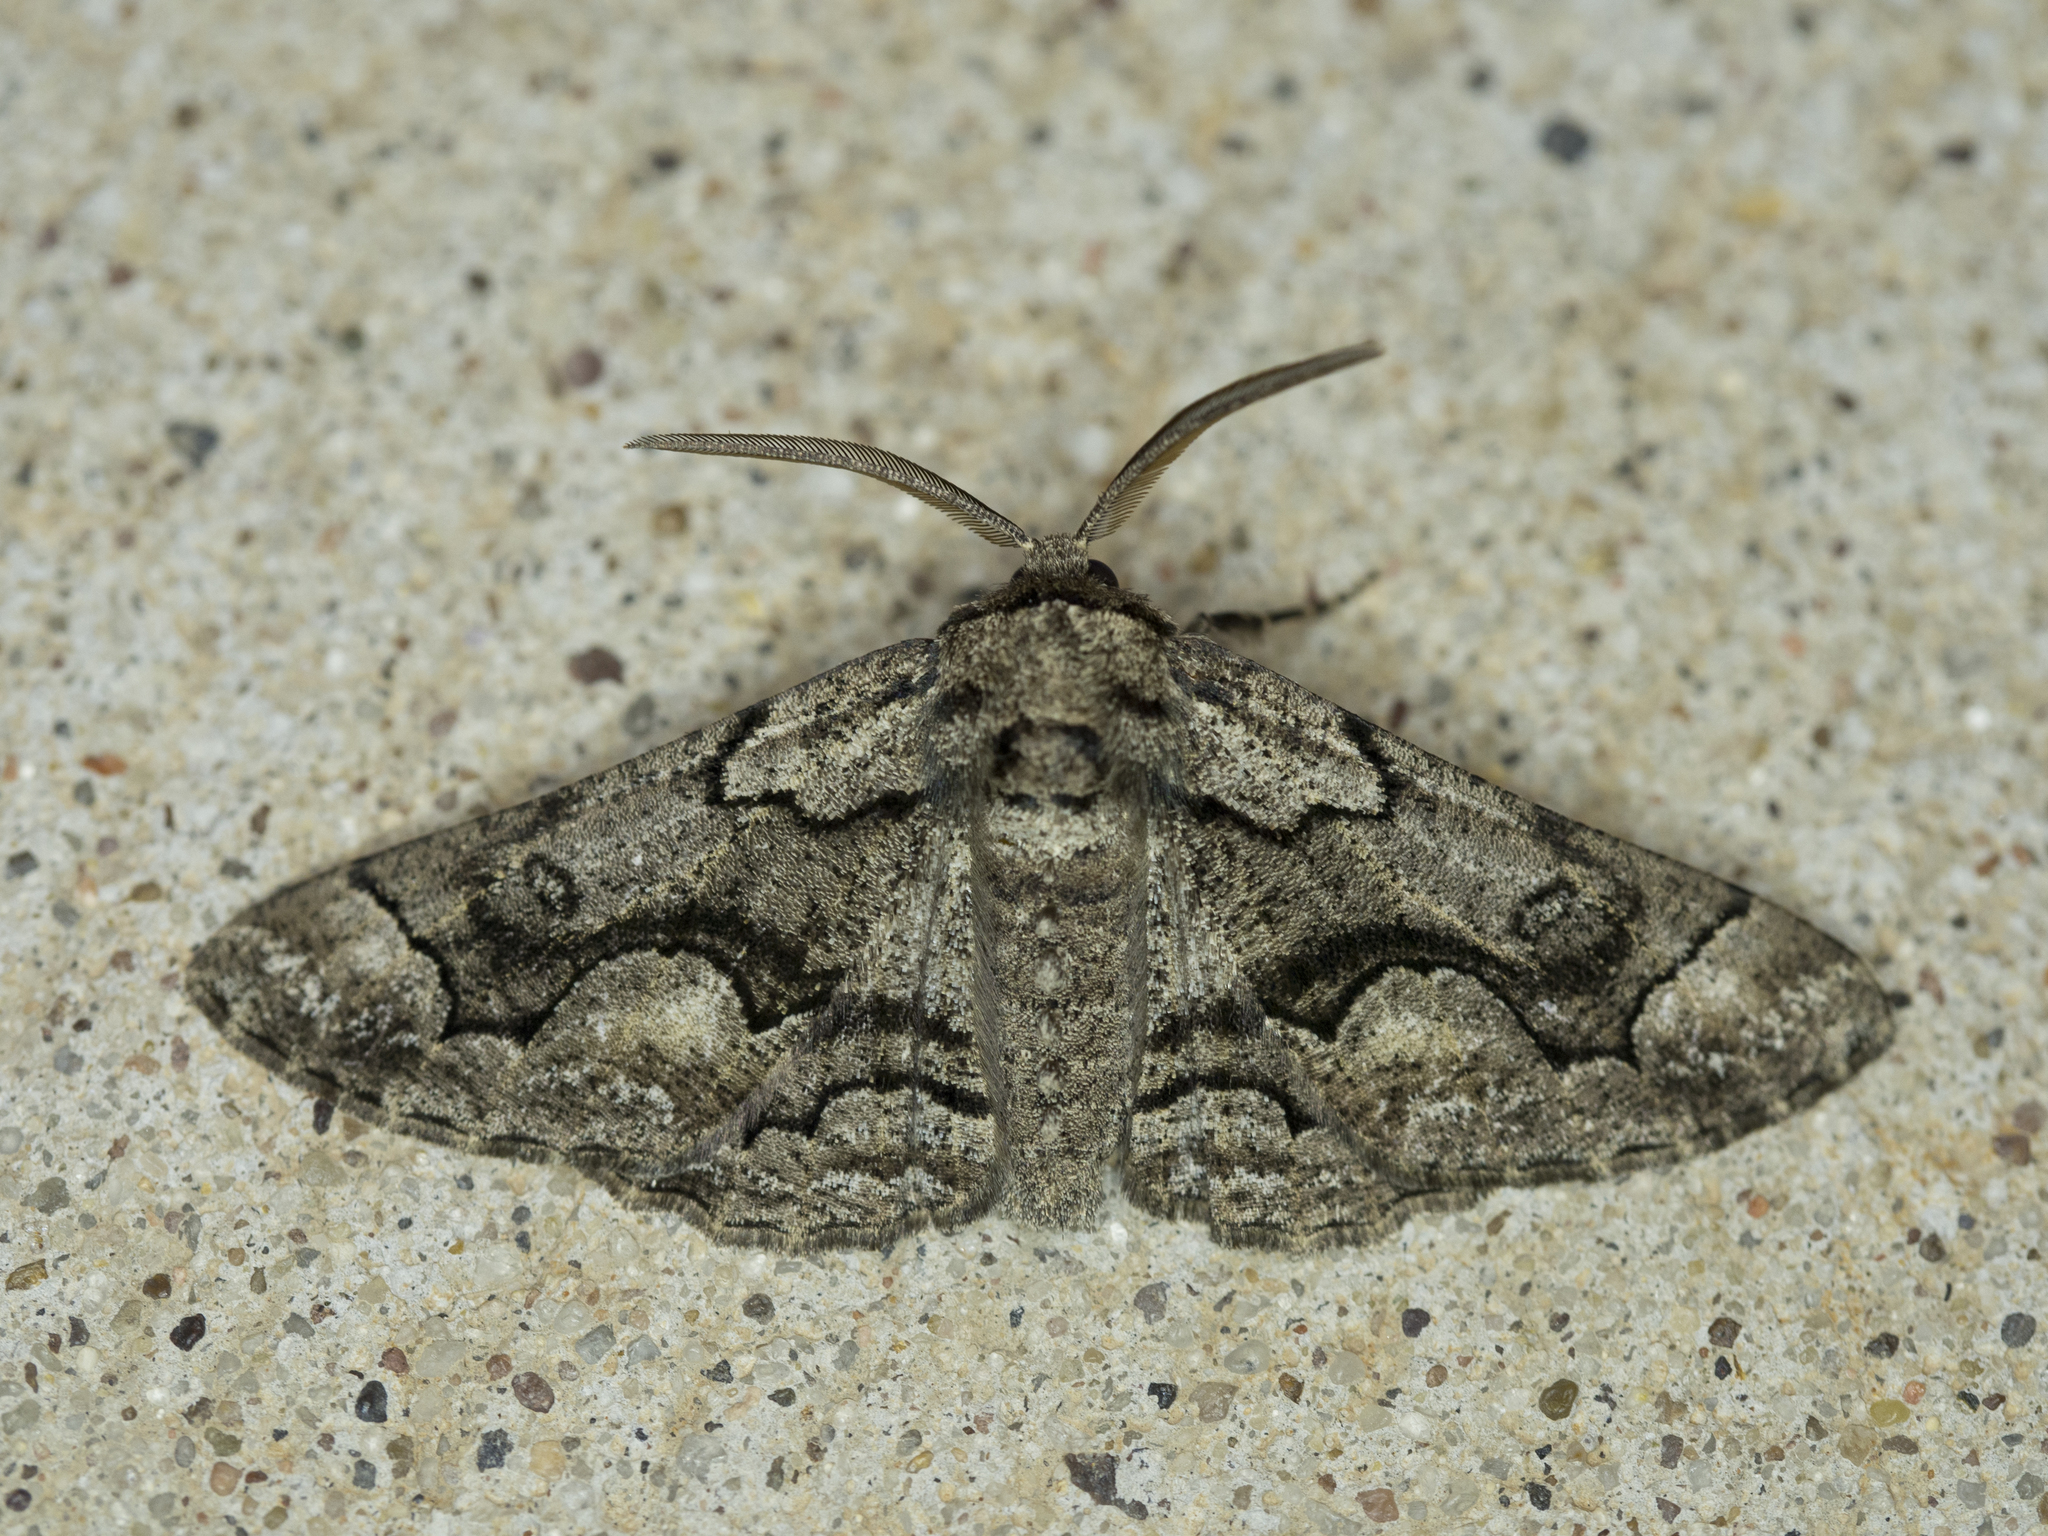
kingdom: Animalia
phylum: Arthropoda
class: Insecta
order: Lepidoptera
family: Geometridae
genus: Phaeoura
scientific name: Phaeoura mexicanaria
